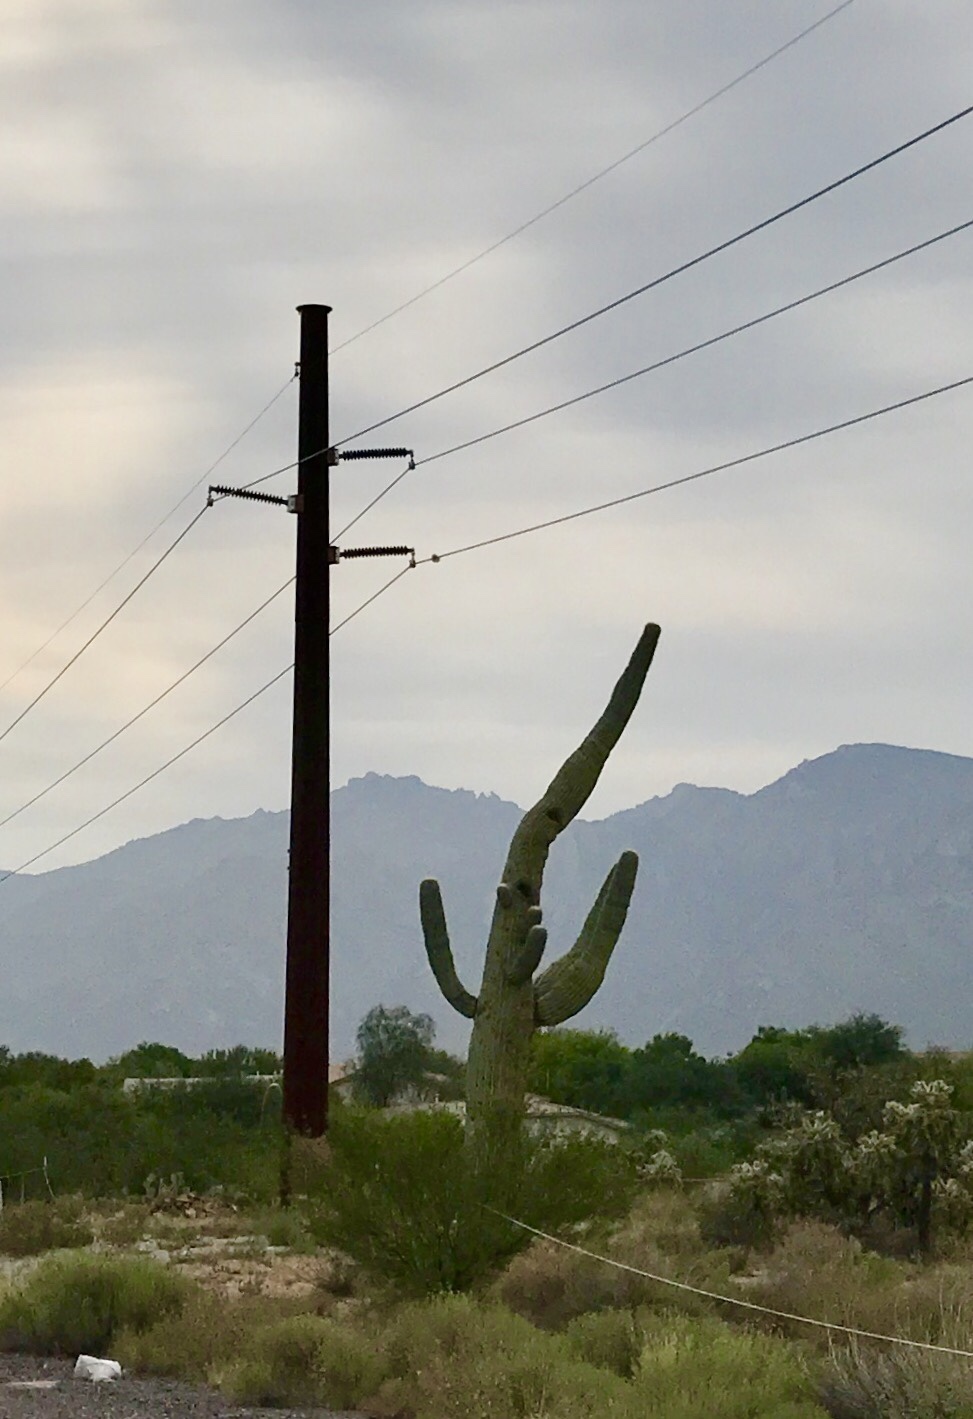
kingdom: Plantae
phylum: Tracheophyta
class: Magnoliopsida
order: Caryophyllales
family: Cactaceae
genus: Carnegiea
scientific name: Carnegiea gigantea
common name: Saguaro
